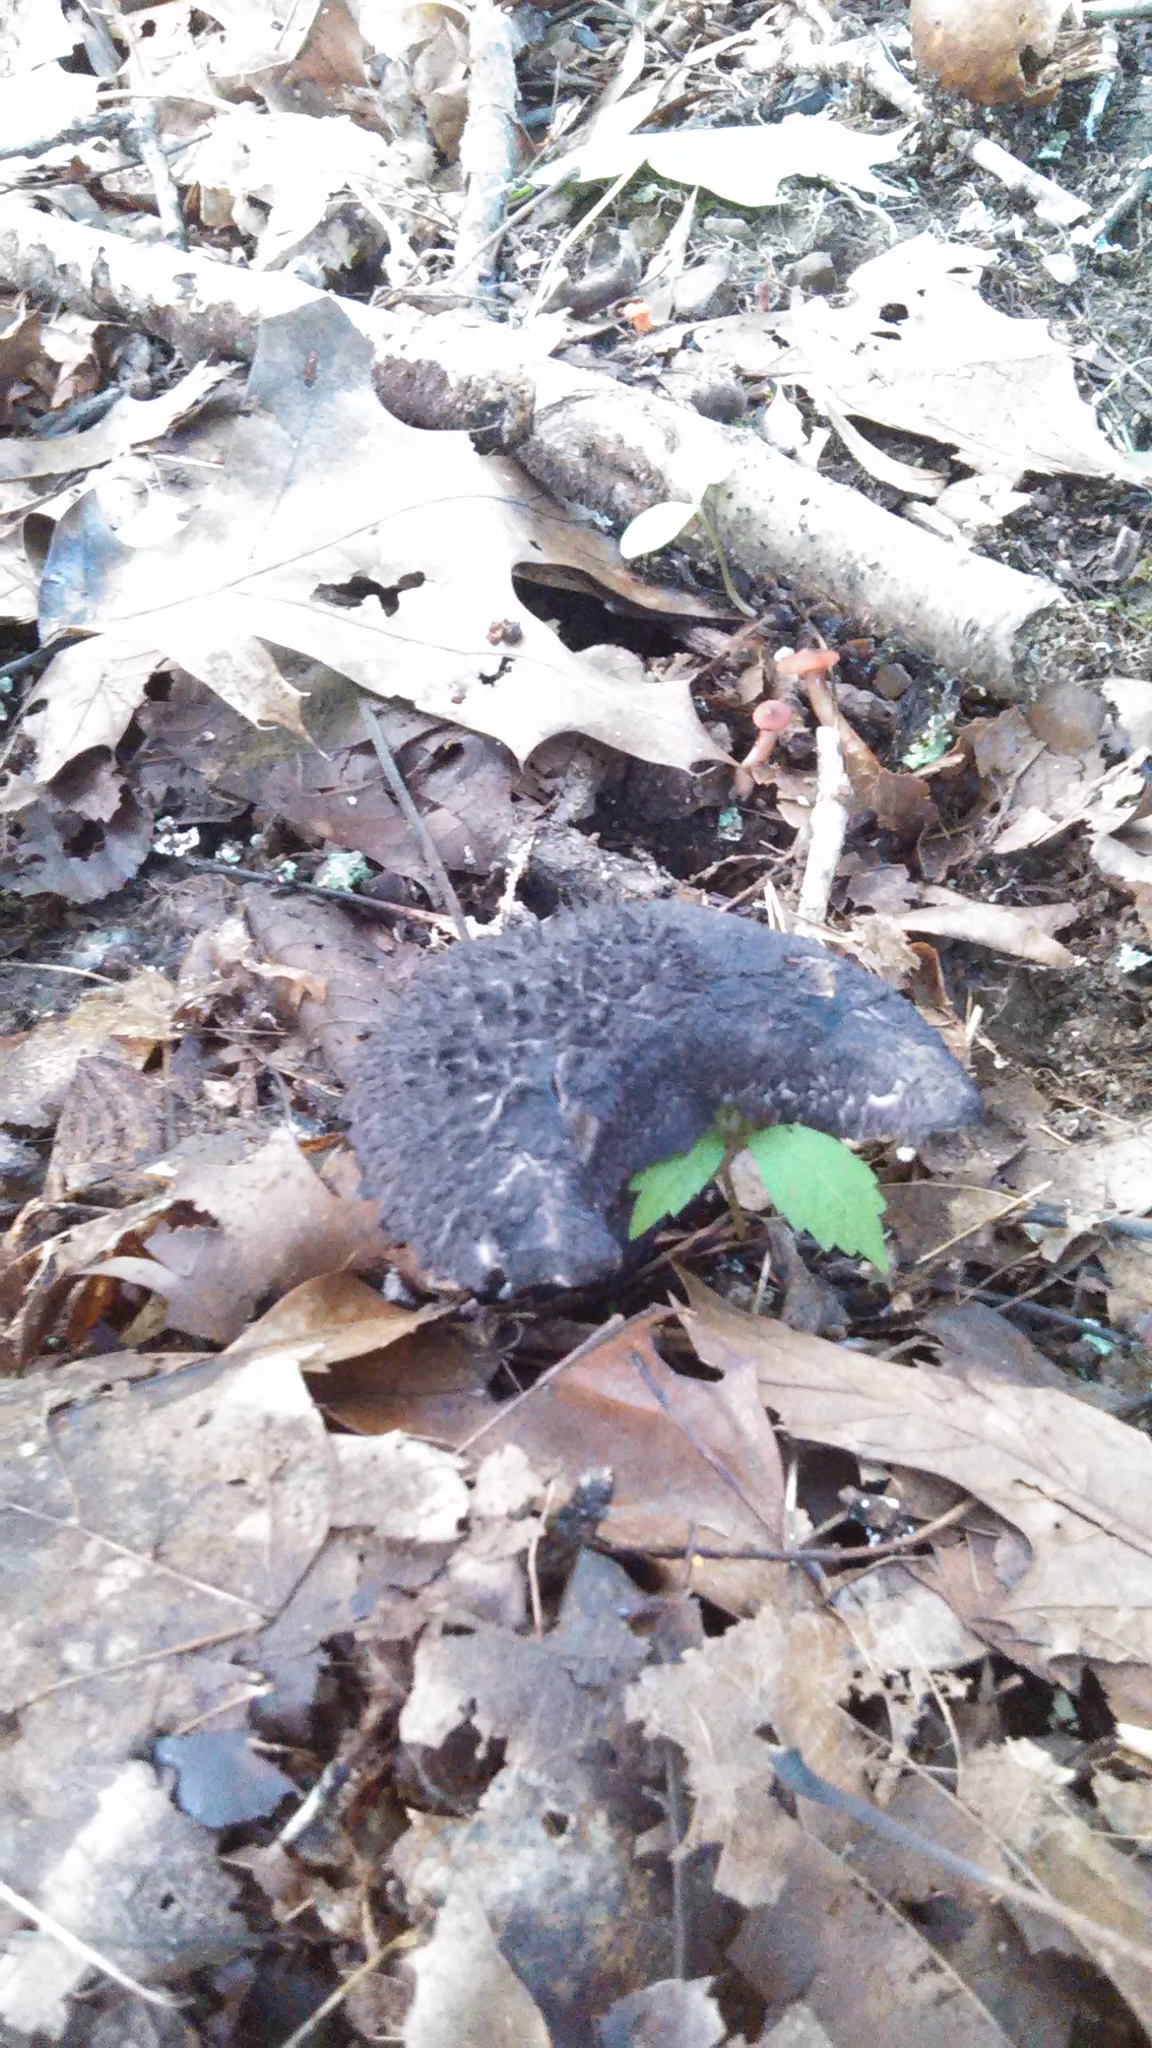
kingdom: Fungi
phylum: Basidiomycota
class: Agaricomycetes
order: Boletales
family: Boletaceae
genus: Strobilomyces
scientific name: Strobilomyces strobilaceus
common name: Old man of the woods
